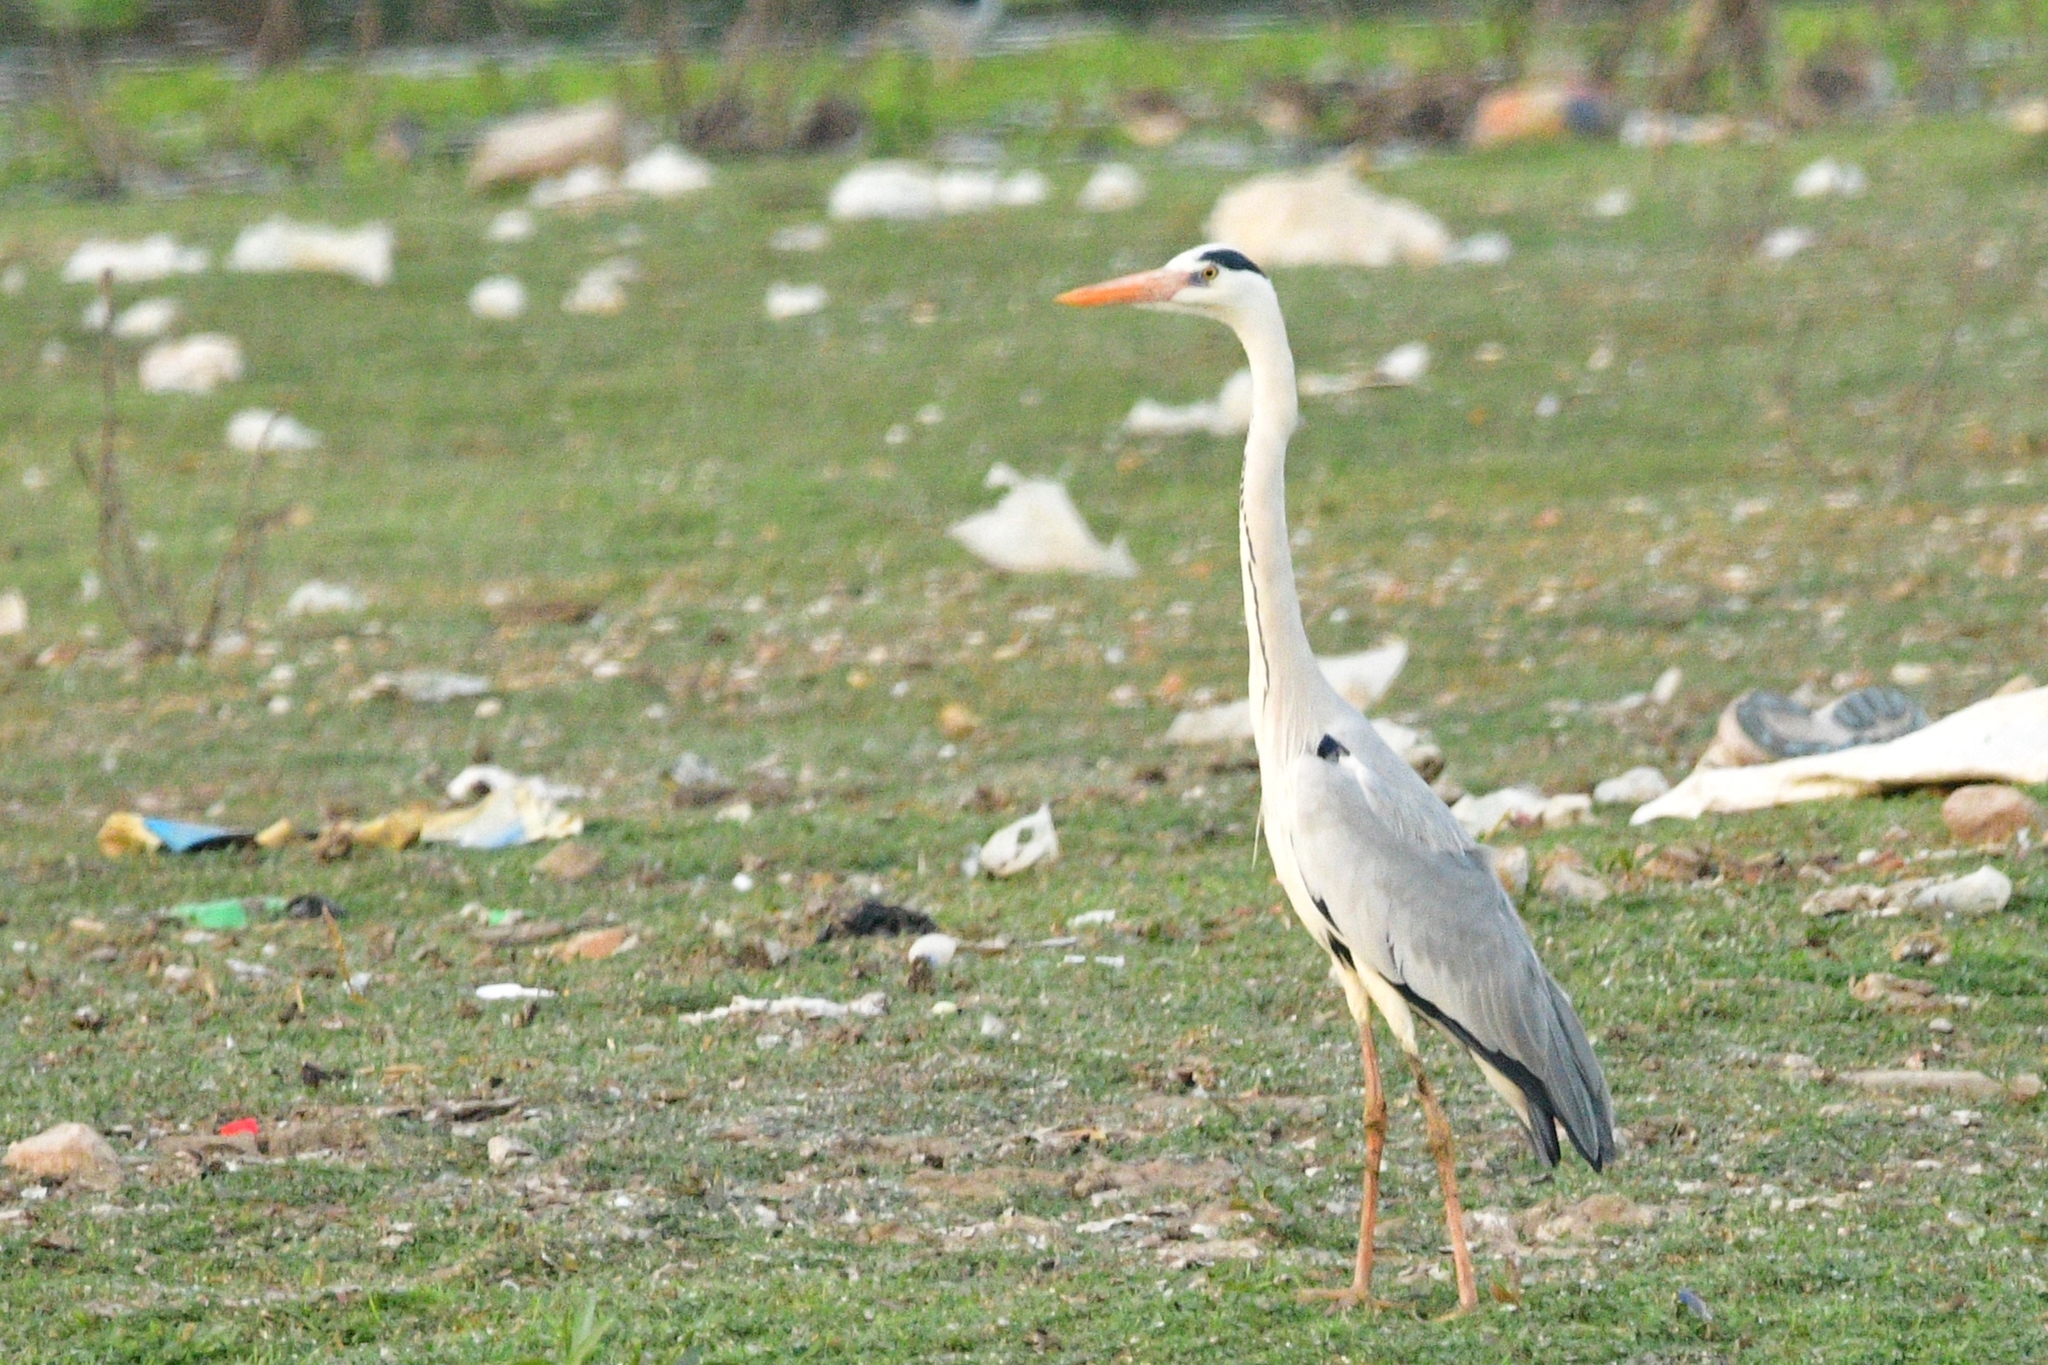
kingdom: Animalia
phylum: Chordata
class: Aves
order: Pelecaniformes
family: Ardeidae
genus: Ardea
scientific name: Ardea cinerea
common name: Grey heron
